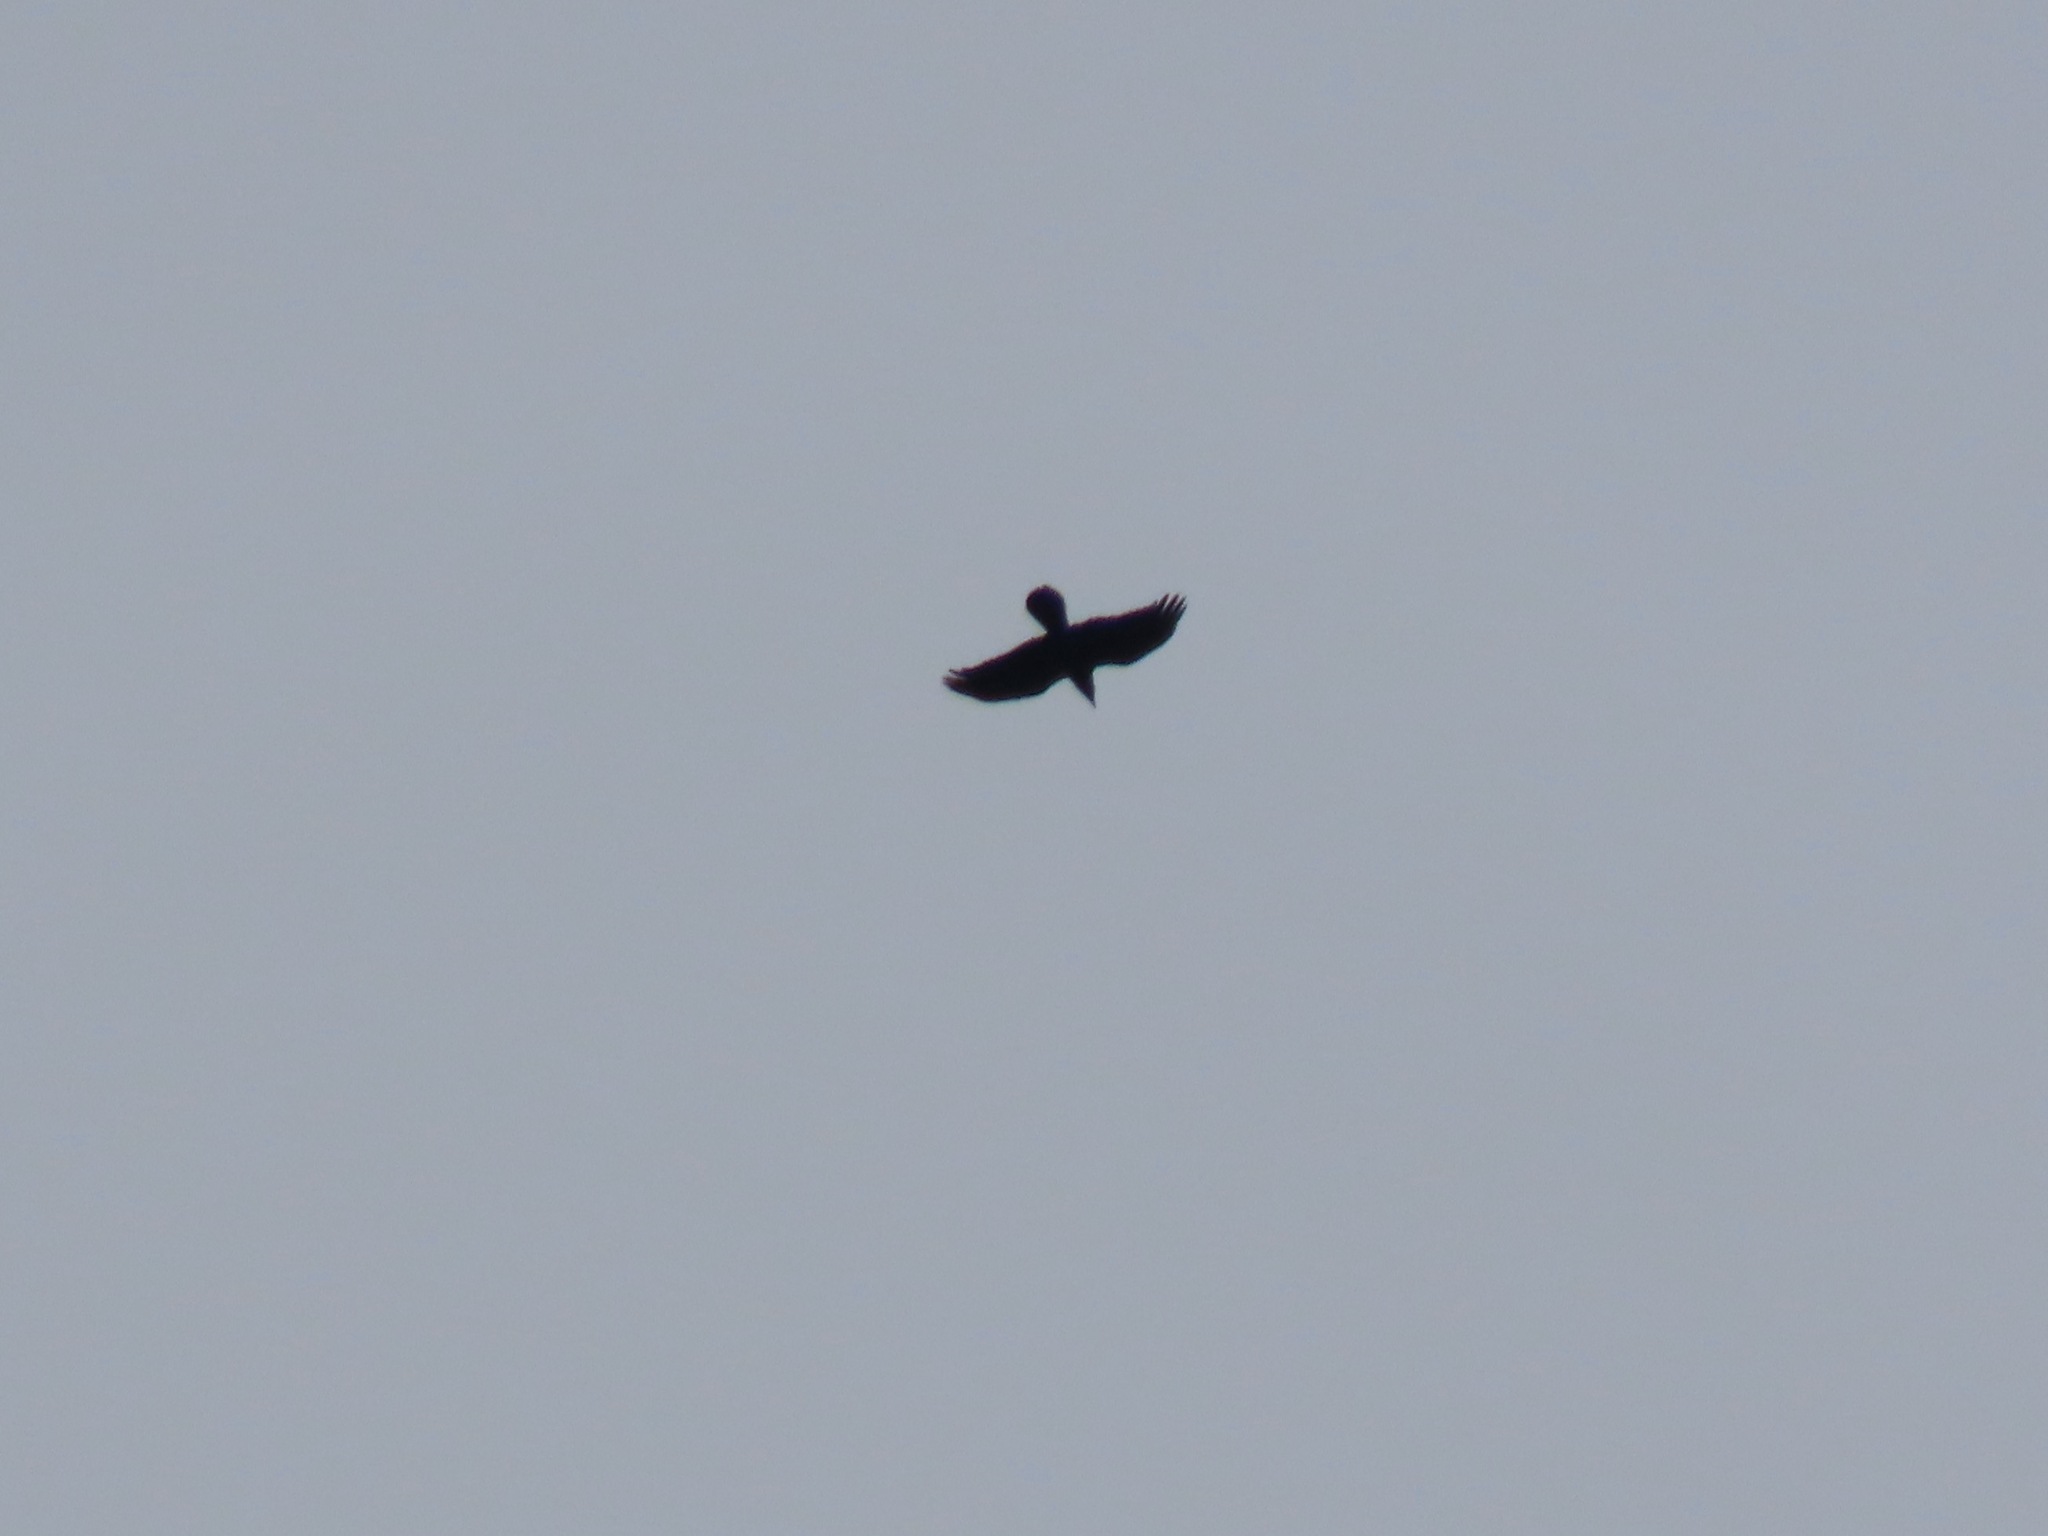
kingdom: Animalia
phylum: Chordata
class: Aves
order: Passeriformes
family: Corvidae
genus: Corvus
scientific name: Corvus corax
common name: Common raven
